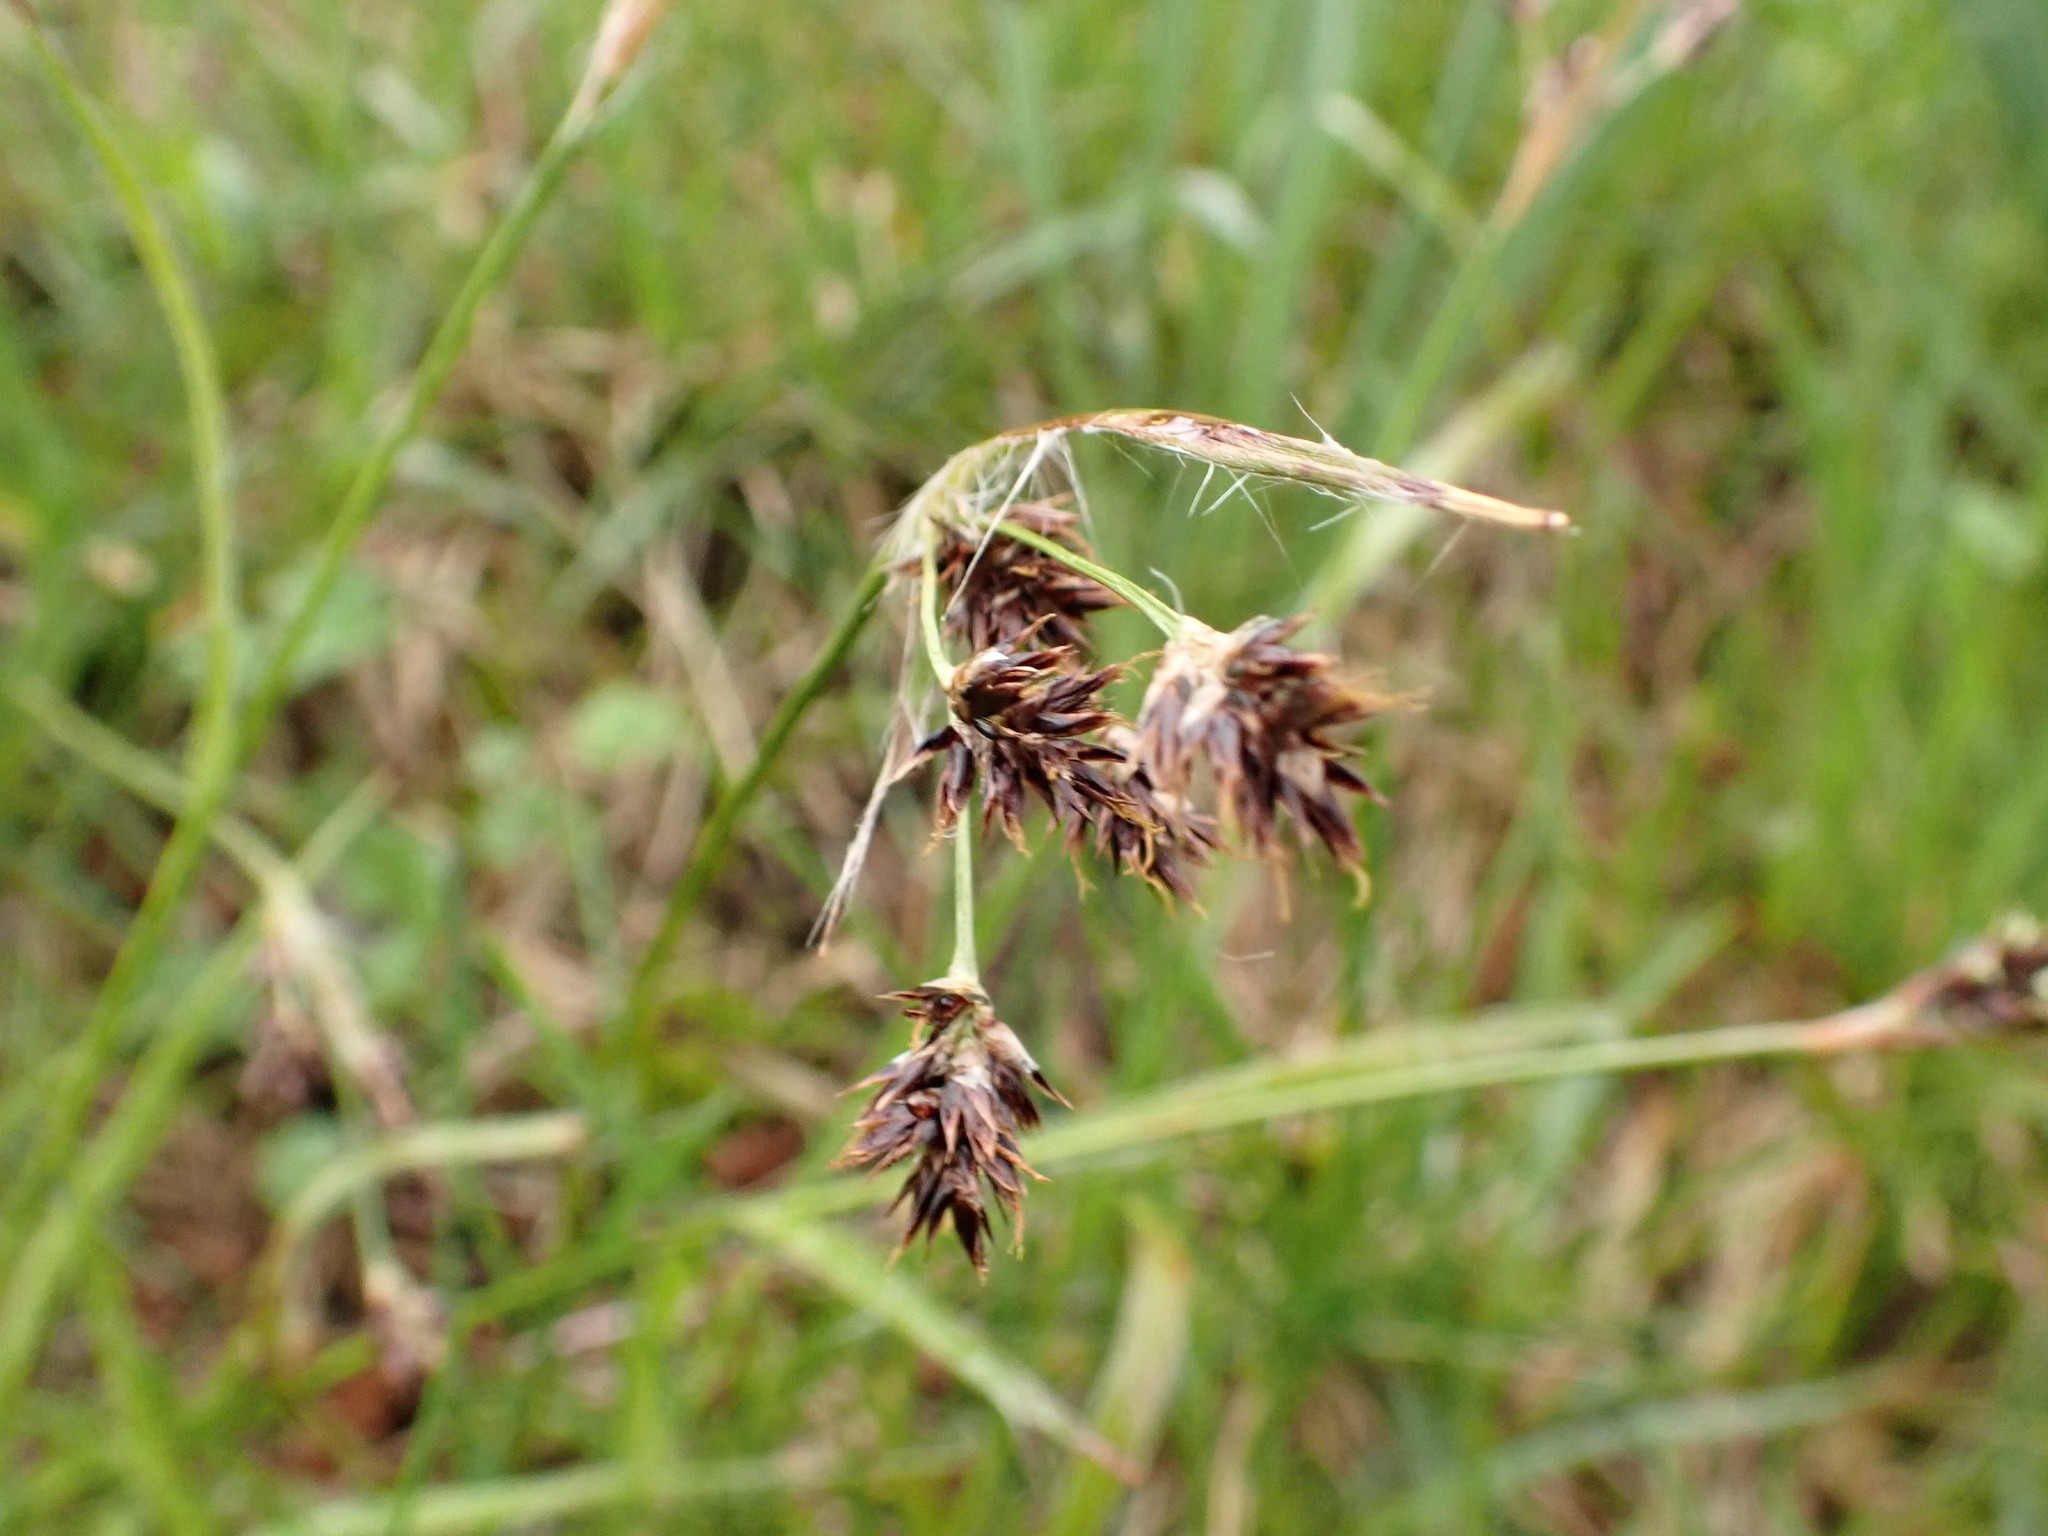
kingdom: Plantae
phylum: Tracheophyta
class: Liliopsida
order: Poales
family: Juncaceae
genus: Luzula
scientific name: Luzula campestris
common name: Field wood-rush
